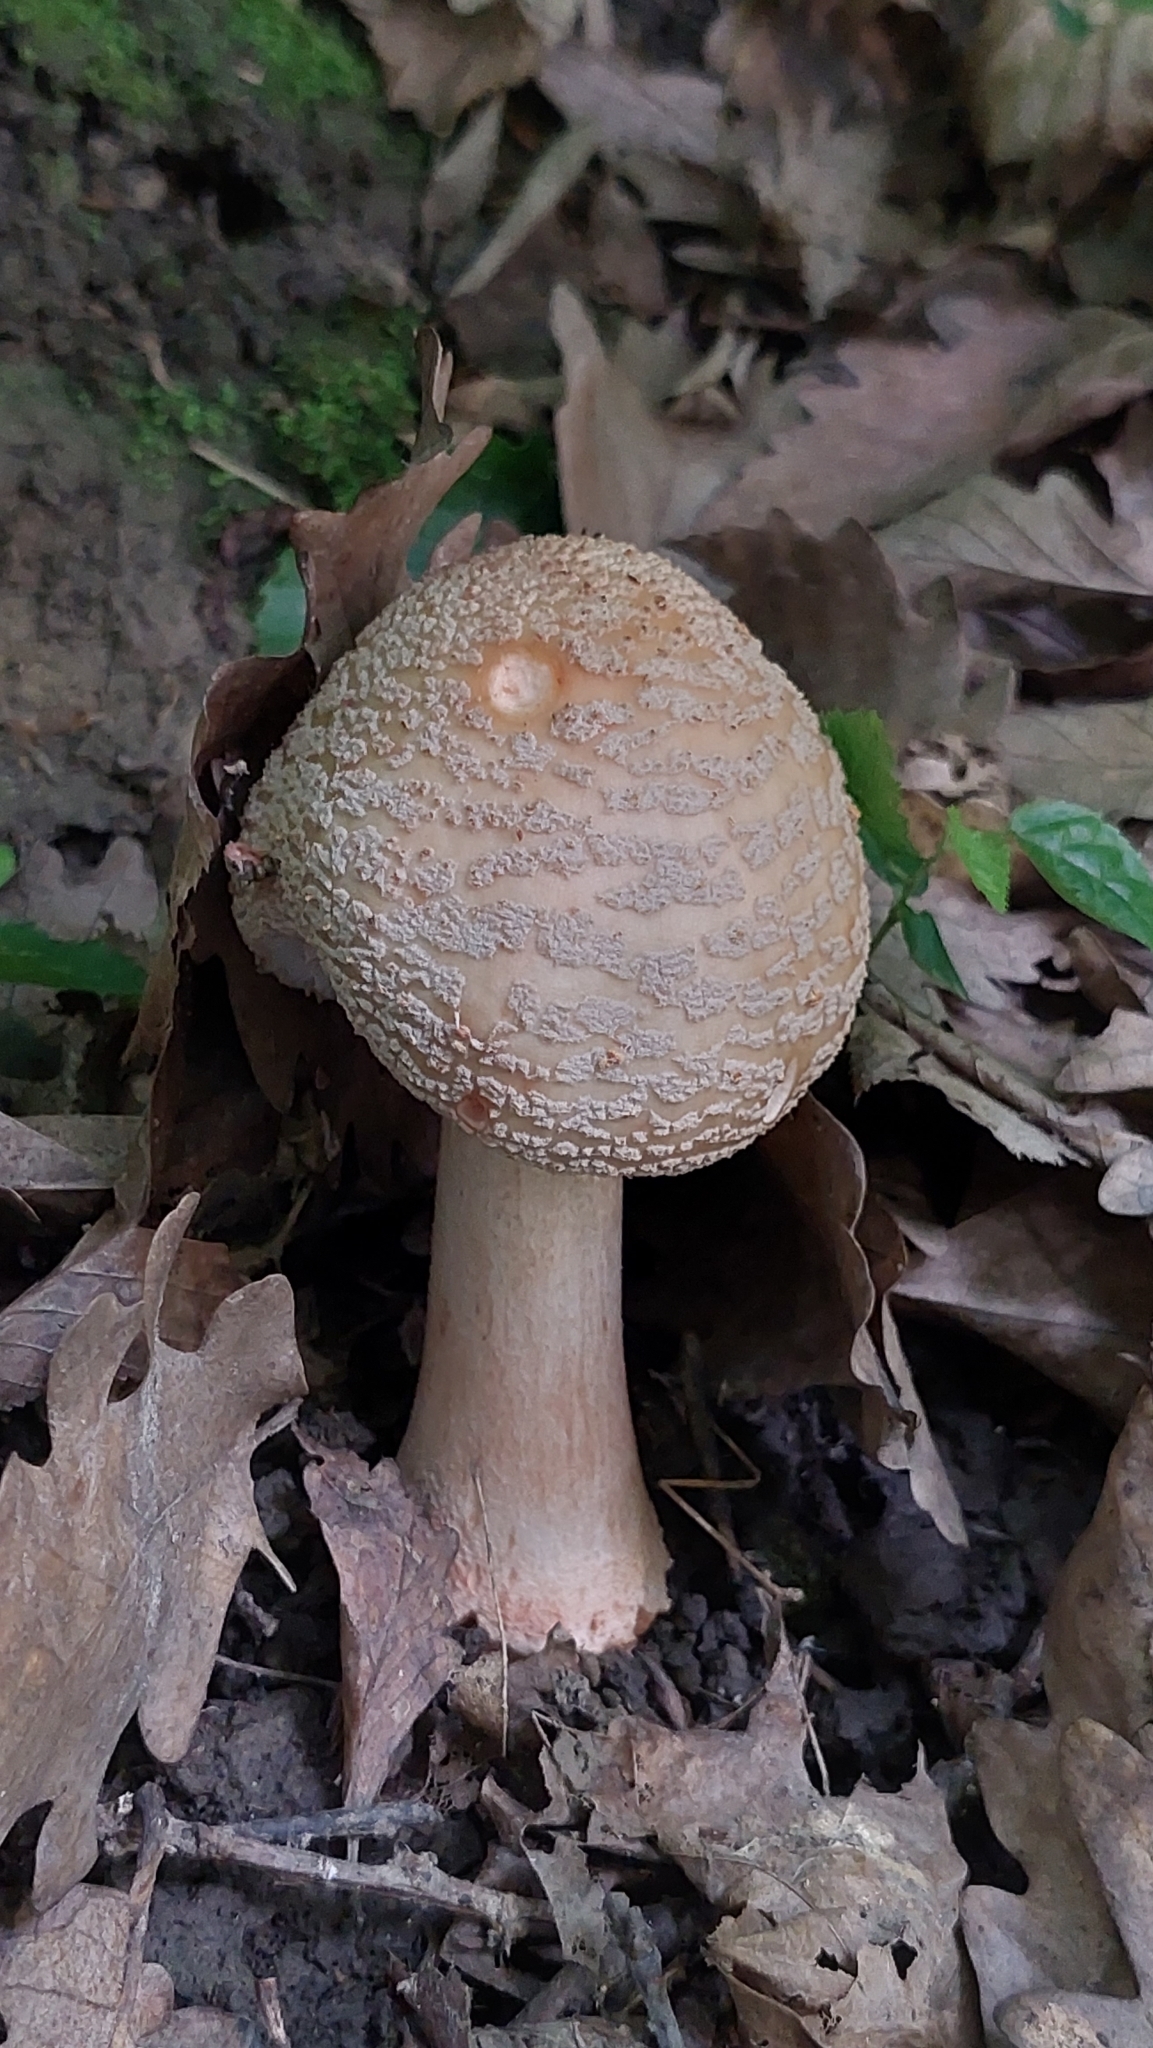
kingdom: Fungi
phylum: Basidiomycota
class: Agaricomycetes
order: Agaricales
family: Amanitaceae
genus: Amanita
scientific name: Amanita rubescens
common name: Blusher
